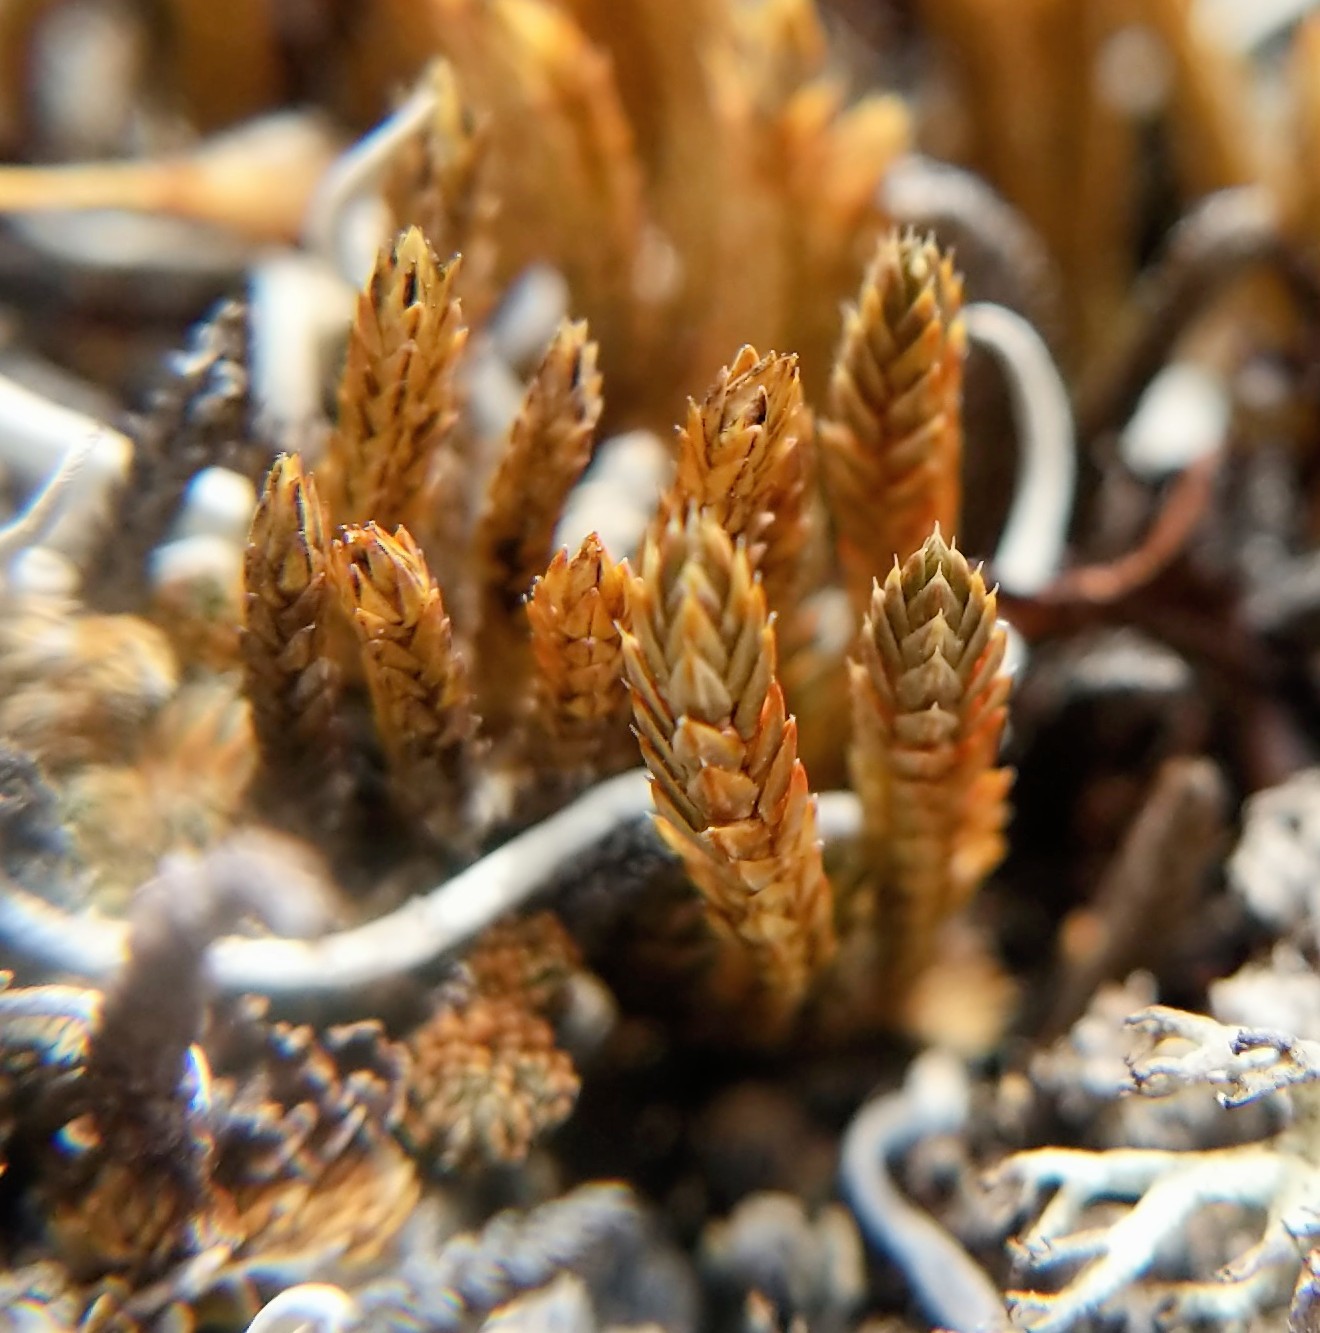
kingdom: Plantae
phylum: Tracheophyta
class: Lycopodiopsida
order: Selaginellales
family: Selaginellaceae
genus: Selaginella
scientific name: Selaginella densa
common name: Mountain spike-moss
